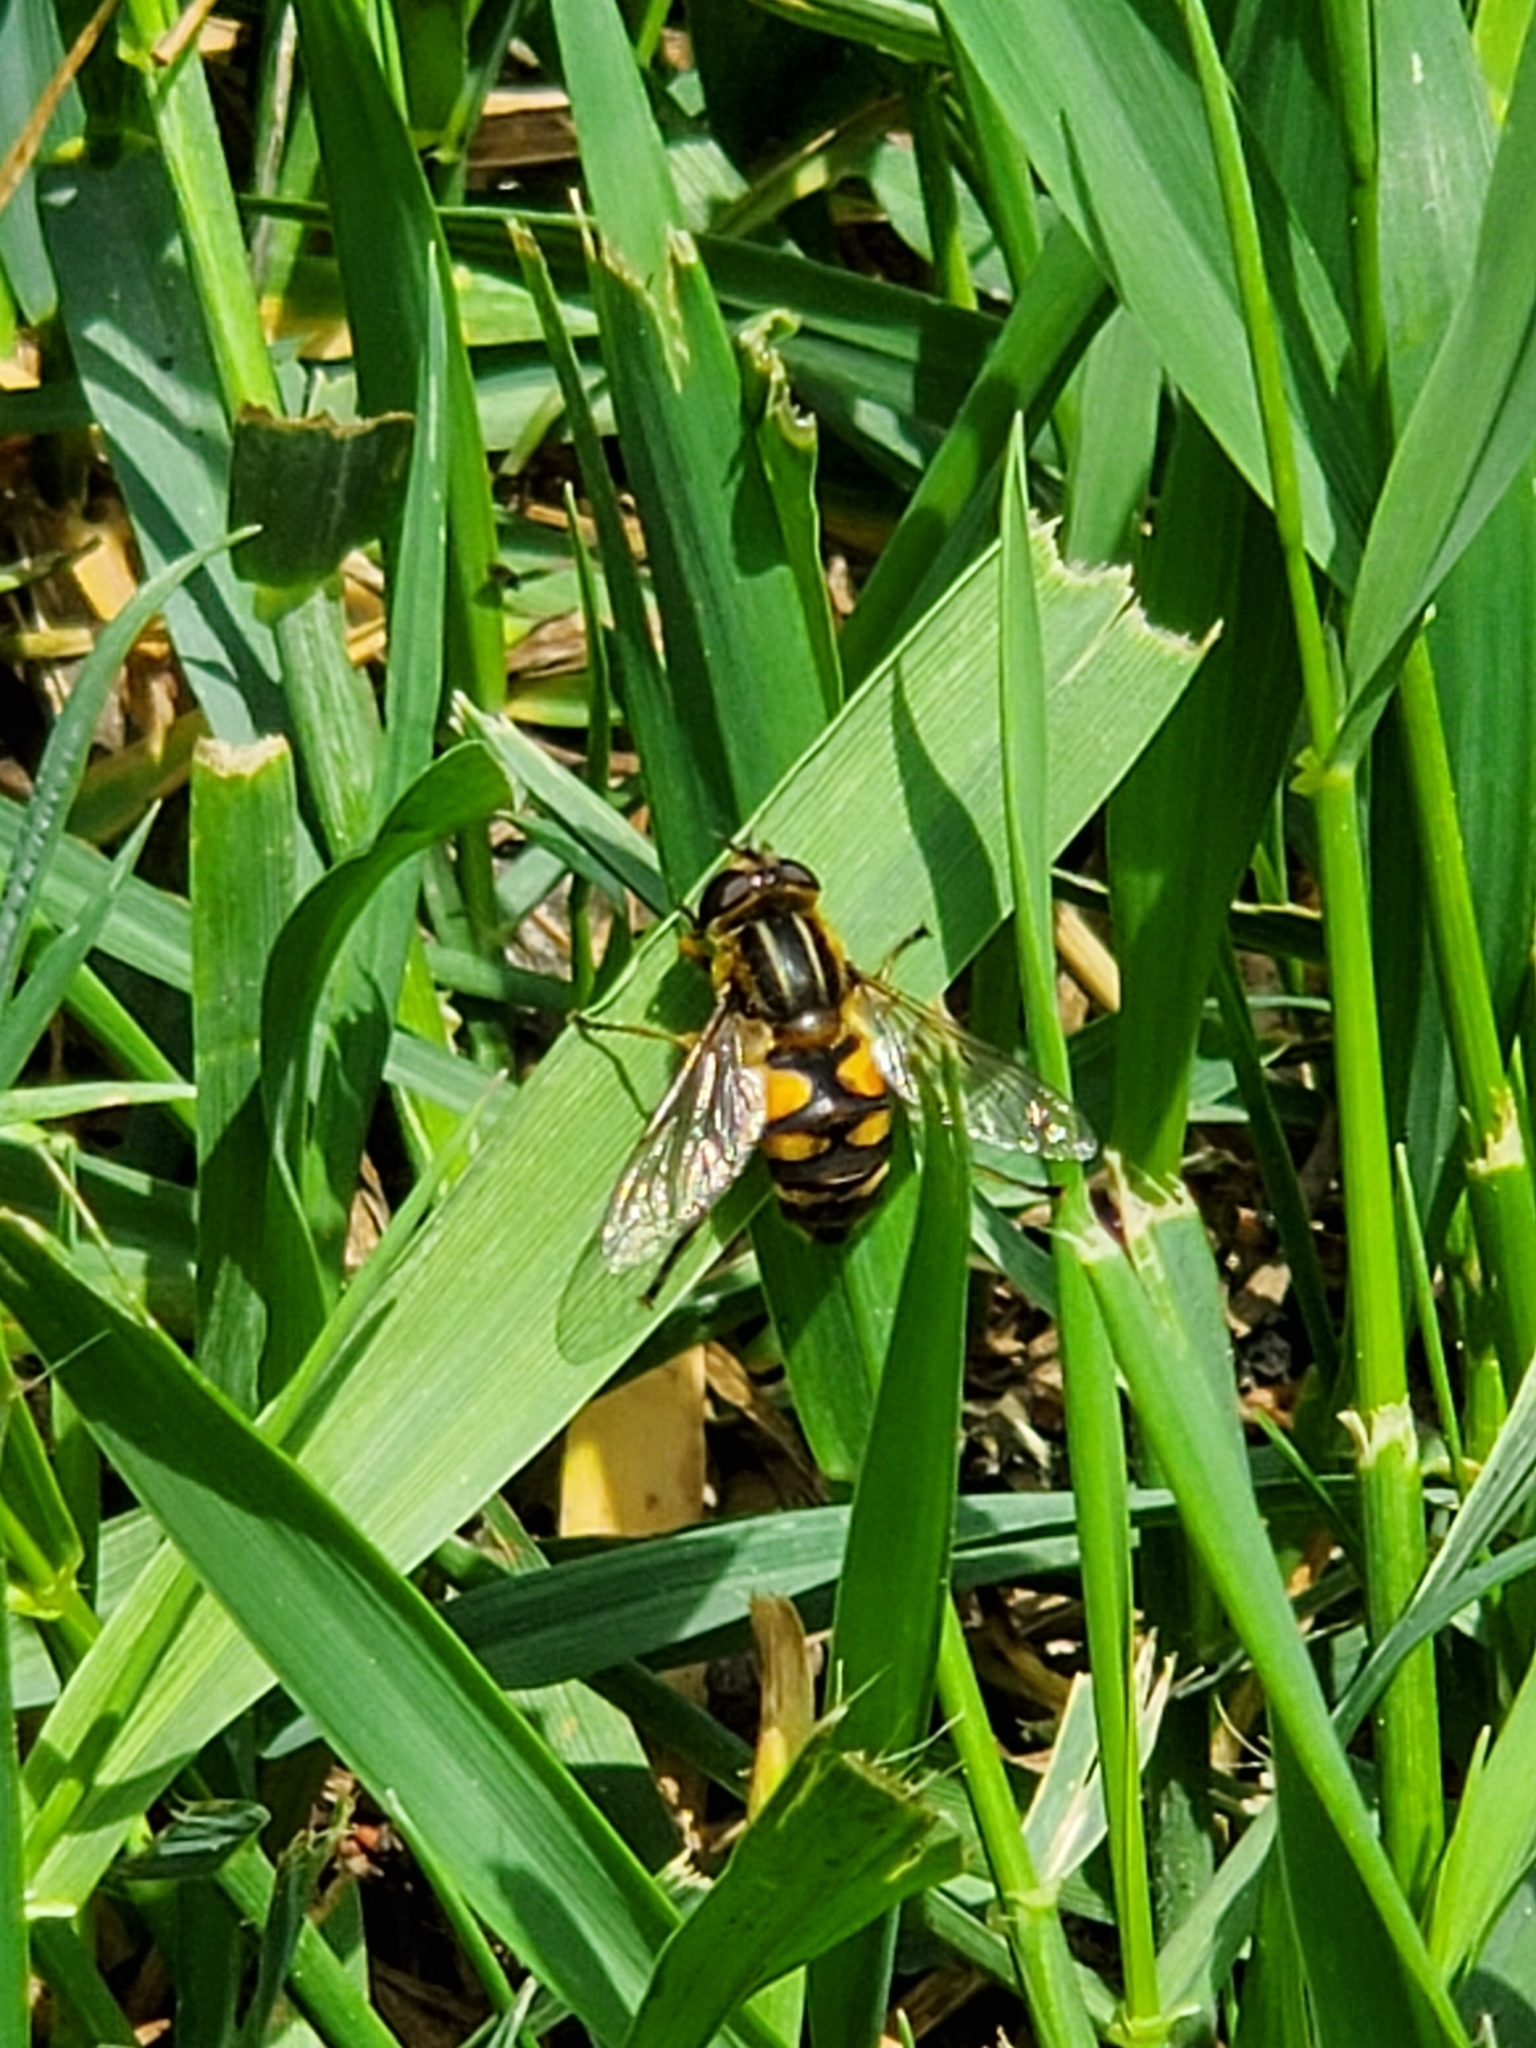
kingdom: Animalia
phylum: Arthropoda
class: Insecta
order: Diptera
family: Syrphidae
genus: Helophilus
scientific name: Helophilus hybridus
